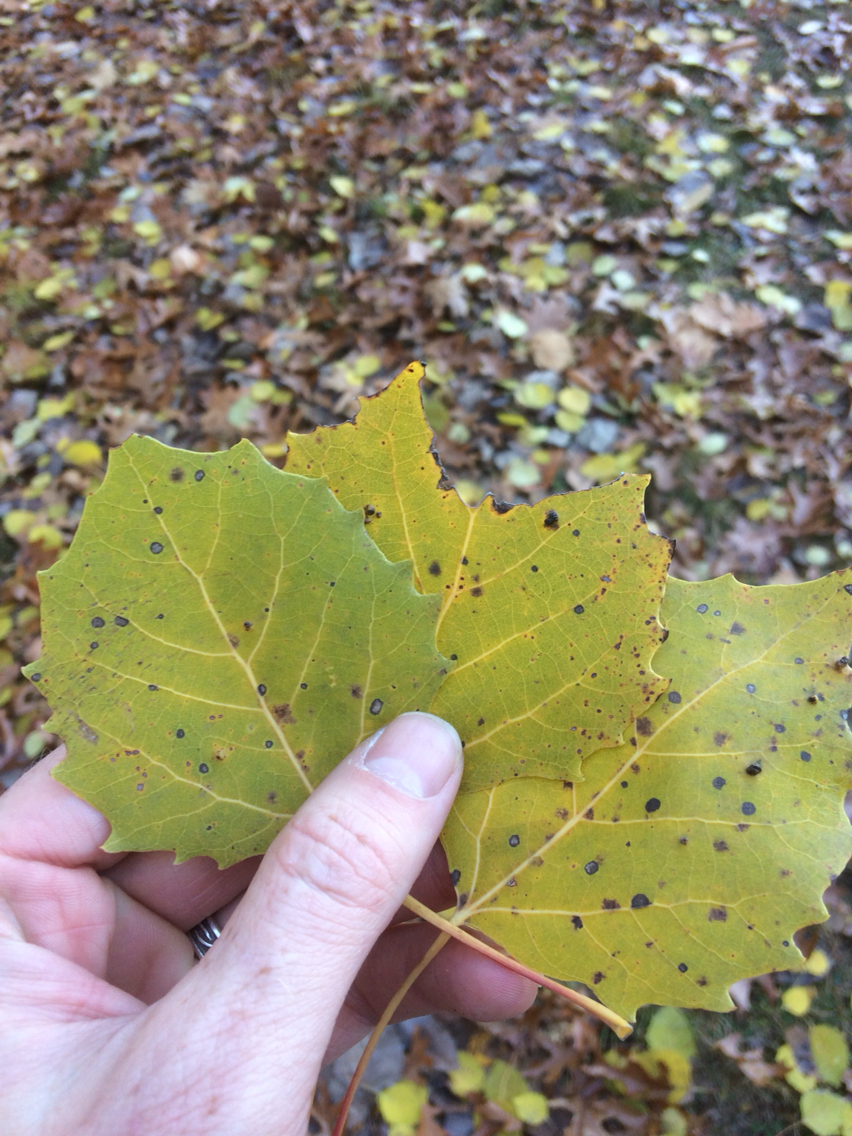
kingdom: Plantae
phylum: Tracheophyta
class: Magnoliopsida
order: Malpighiales
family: Salicaceae
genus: Populus
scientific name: Populus grandidentata
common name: Bigtooth aspen
